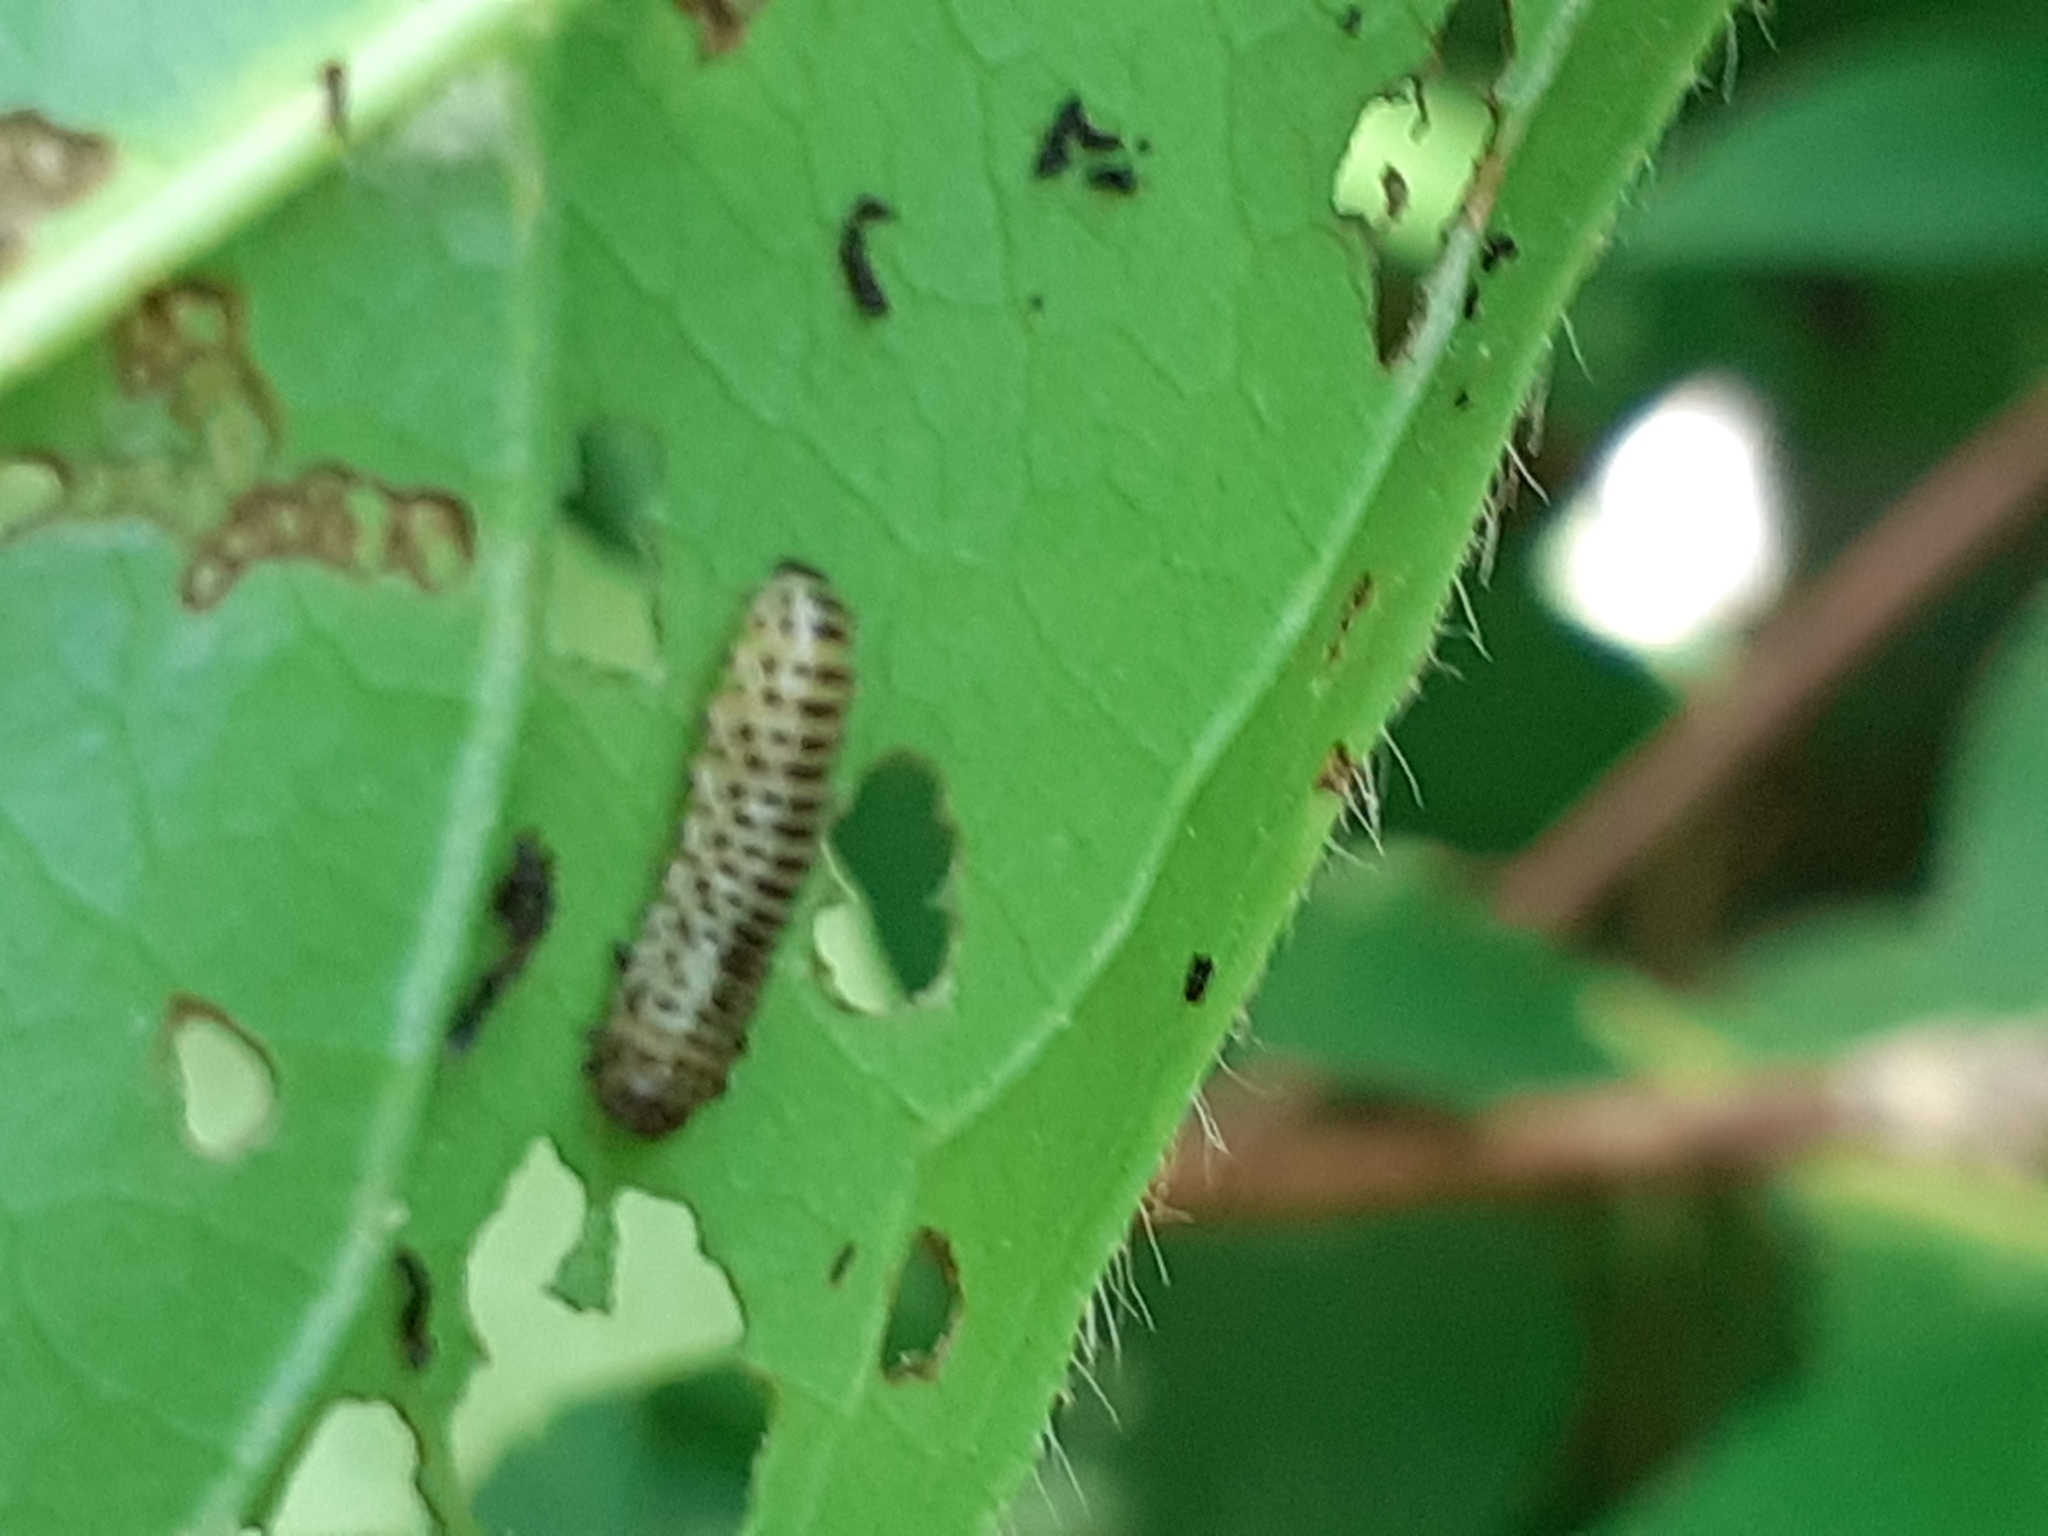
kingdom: Animalia
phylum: Arthropoda
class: Insecta
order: Coleoptera
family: Chrysomelidae
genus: Pyrrhalta
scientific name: Pyrrhalta viburni
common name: Guelder-rose leaf beetle
